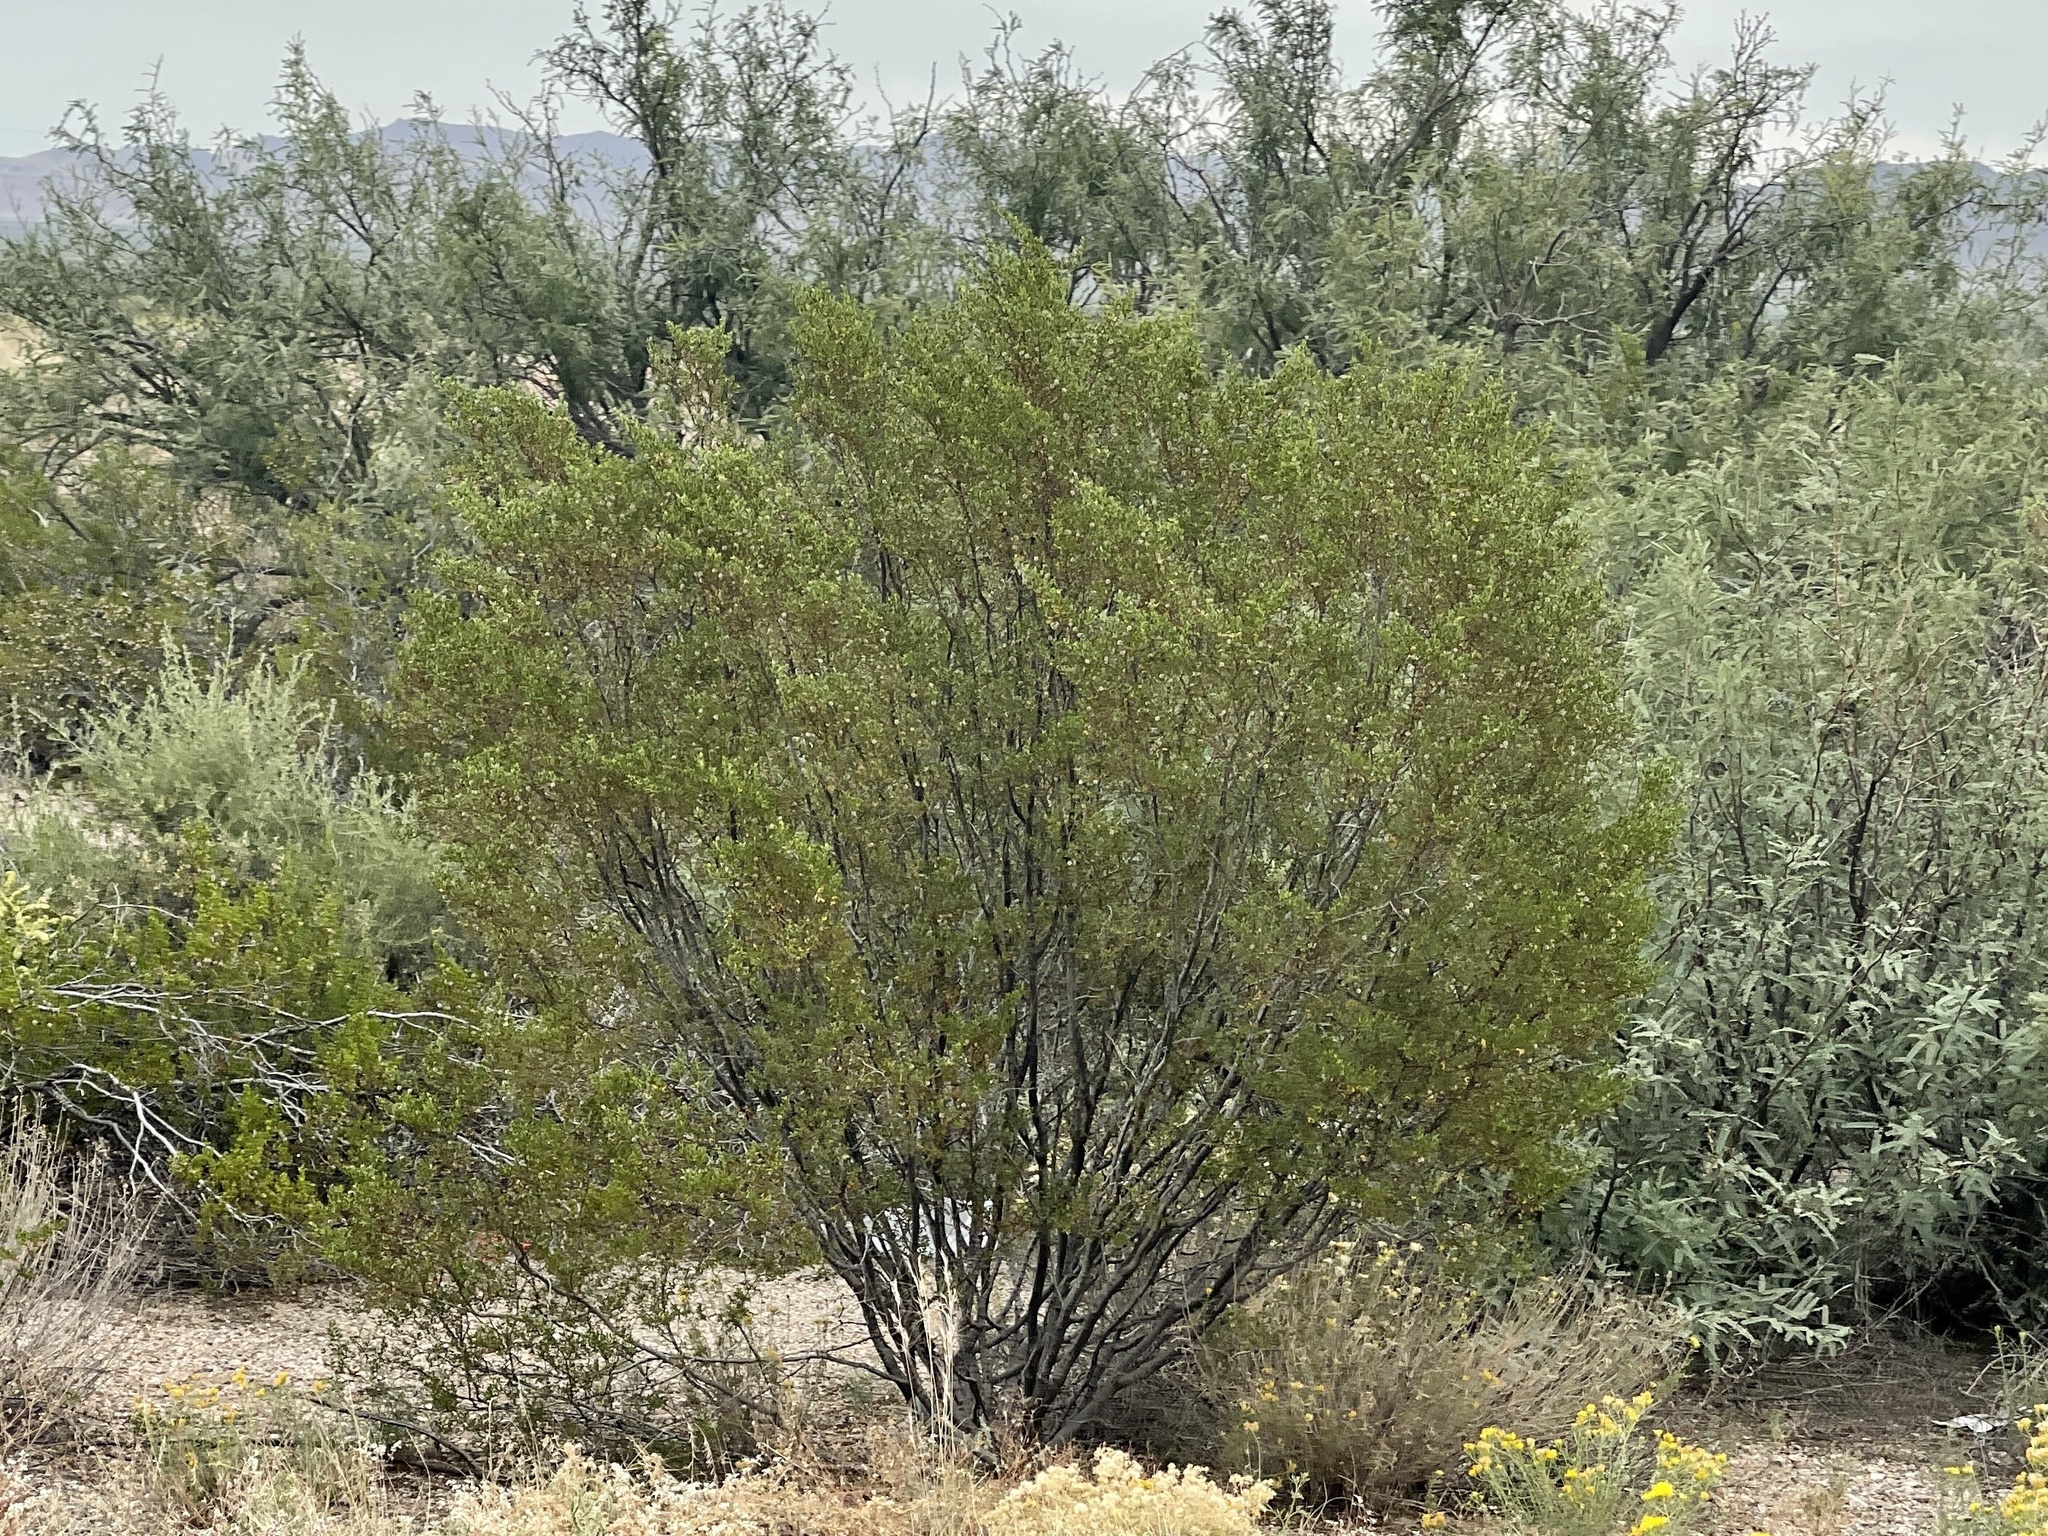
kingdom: Plantae
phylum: Tracheophyta
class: Magnoliopsida
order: Zygophyllales
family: Zygophyllaceae
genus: Larrea
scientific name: Larrea tridentata
